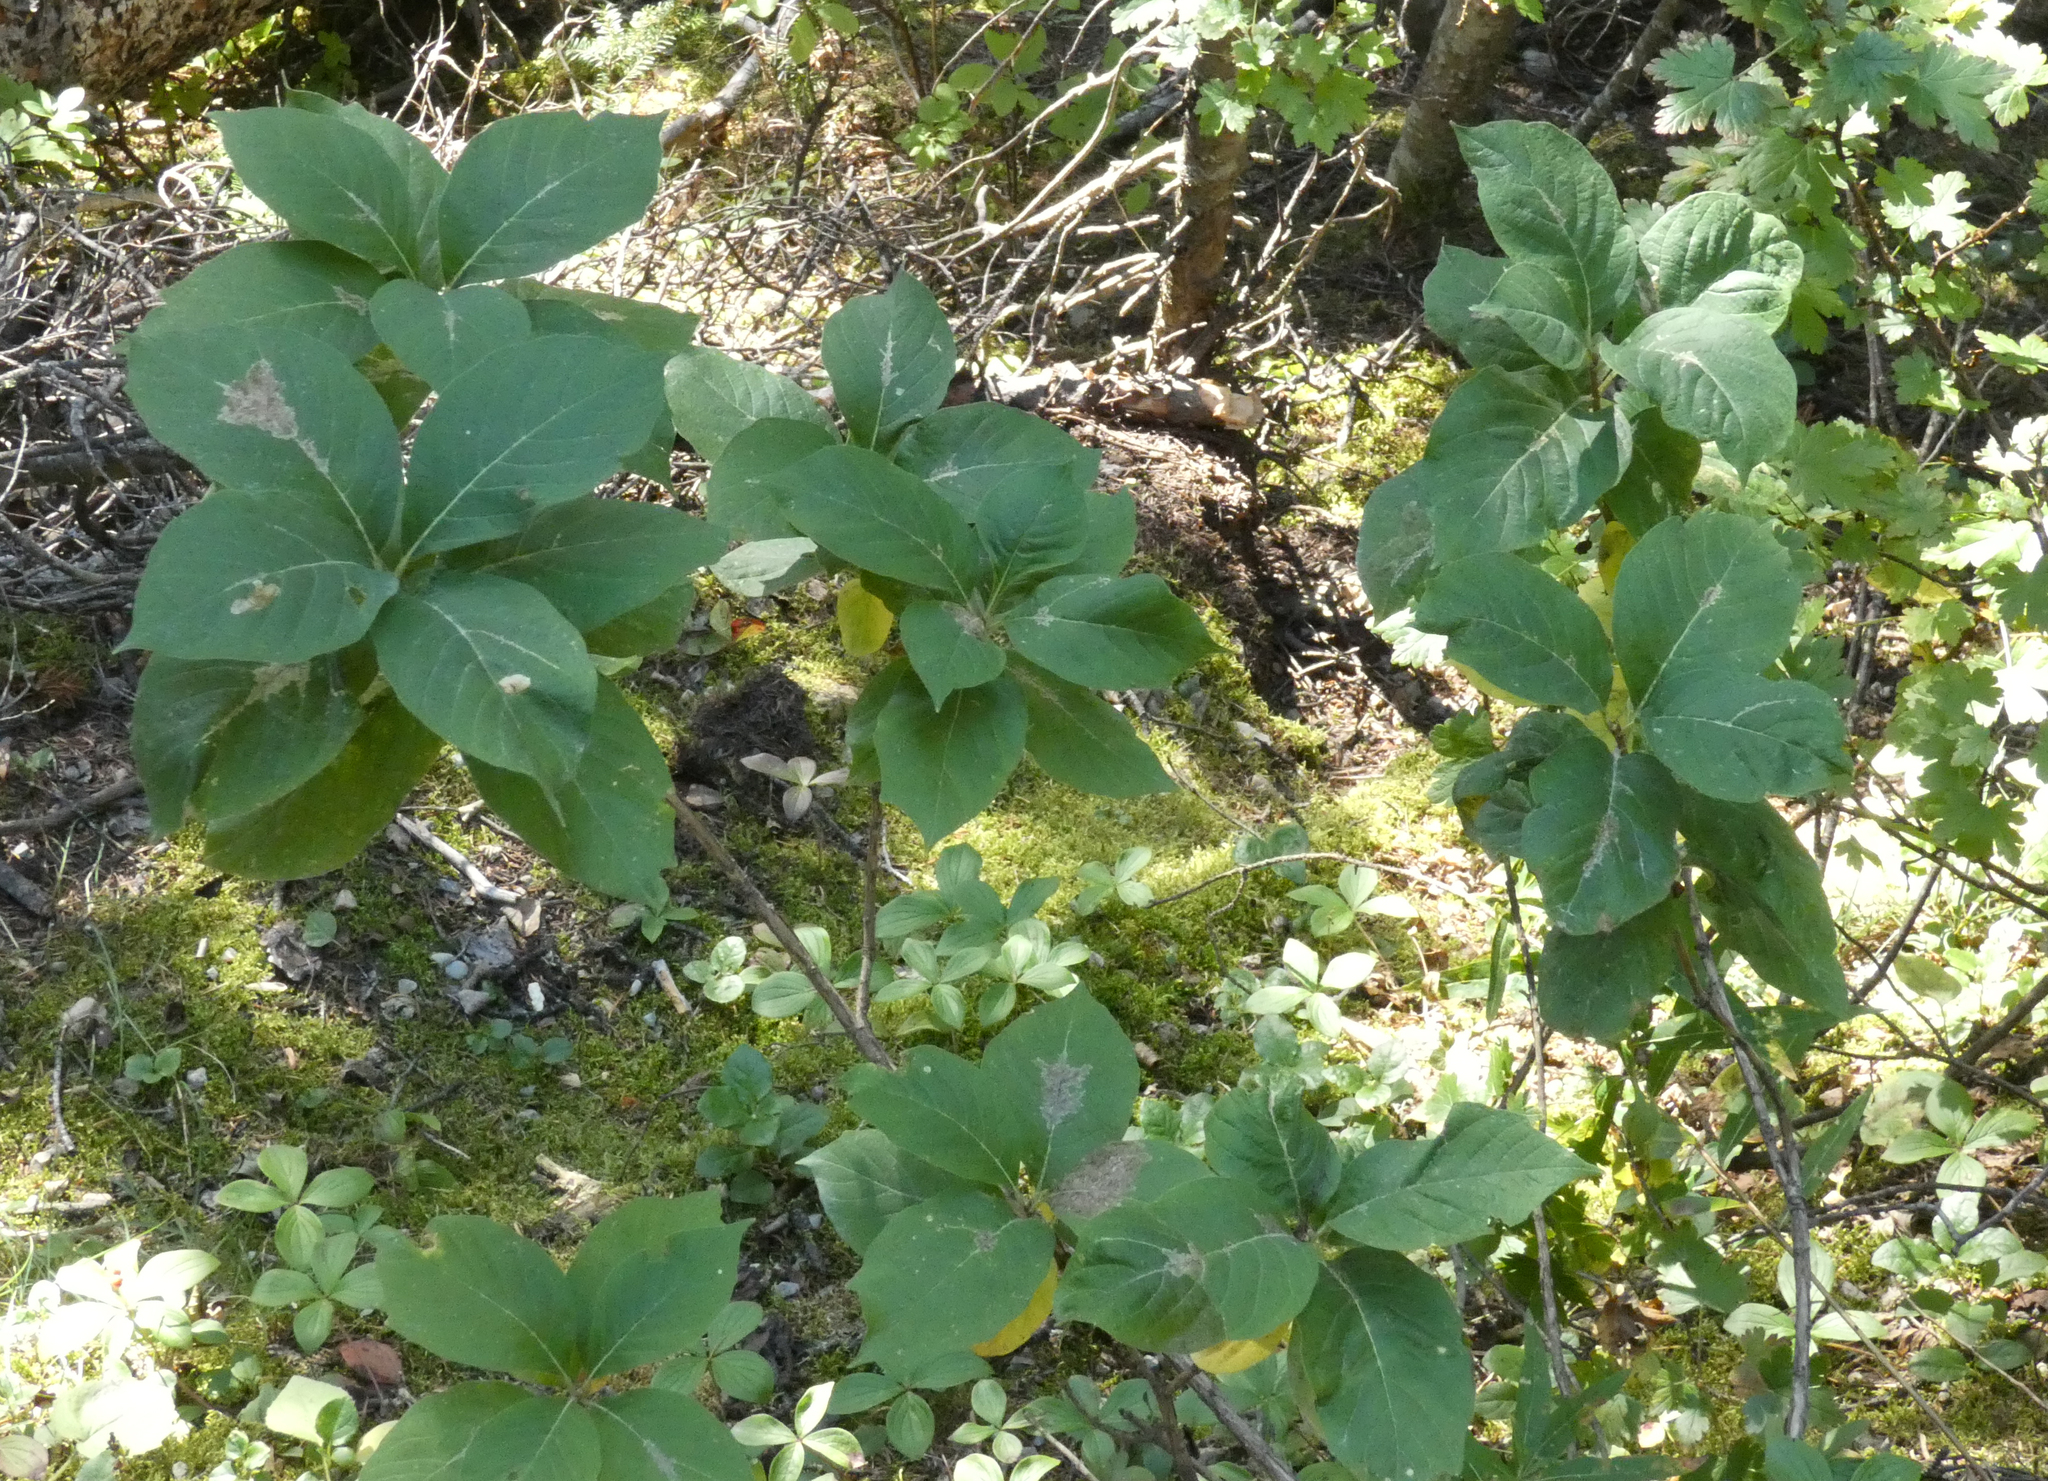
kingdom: Plantae
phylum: Tracheophyta
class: Magnoliopsida
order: Dipsacales
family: Caprifoliaceae
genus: Lonicera
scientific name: Lonicera involucrata
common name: Californian honeysuckle
